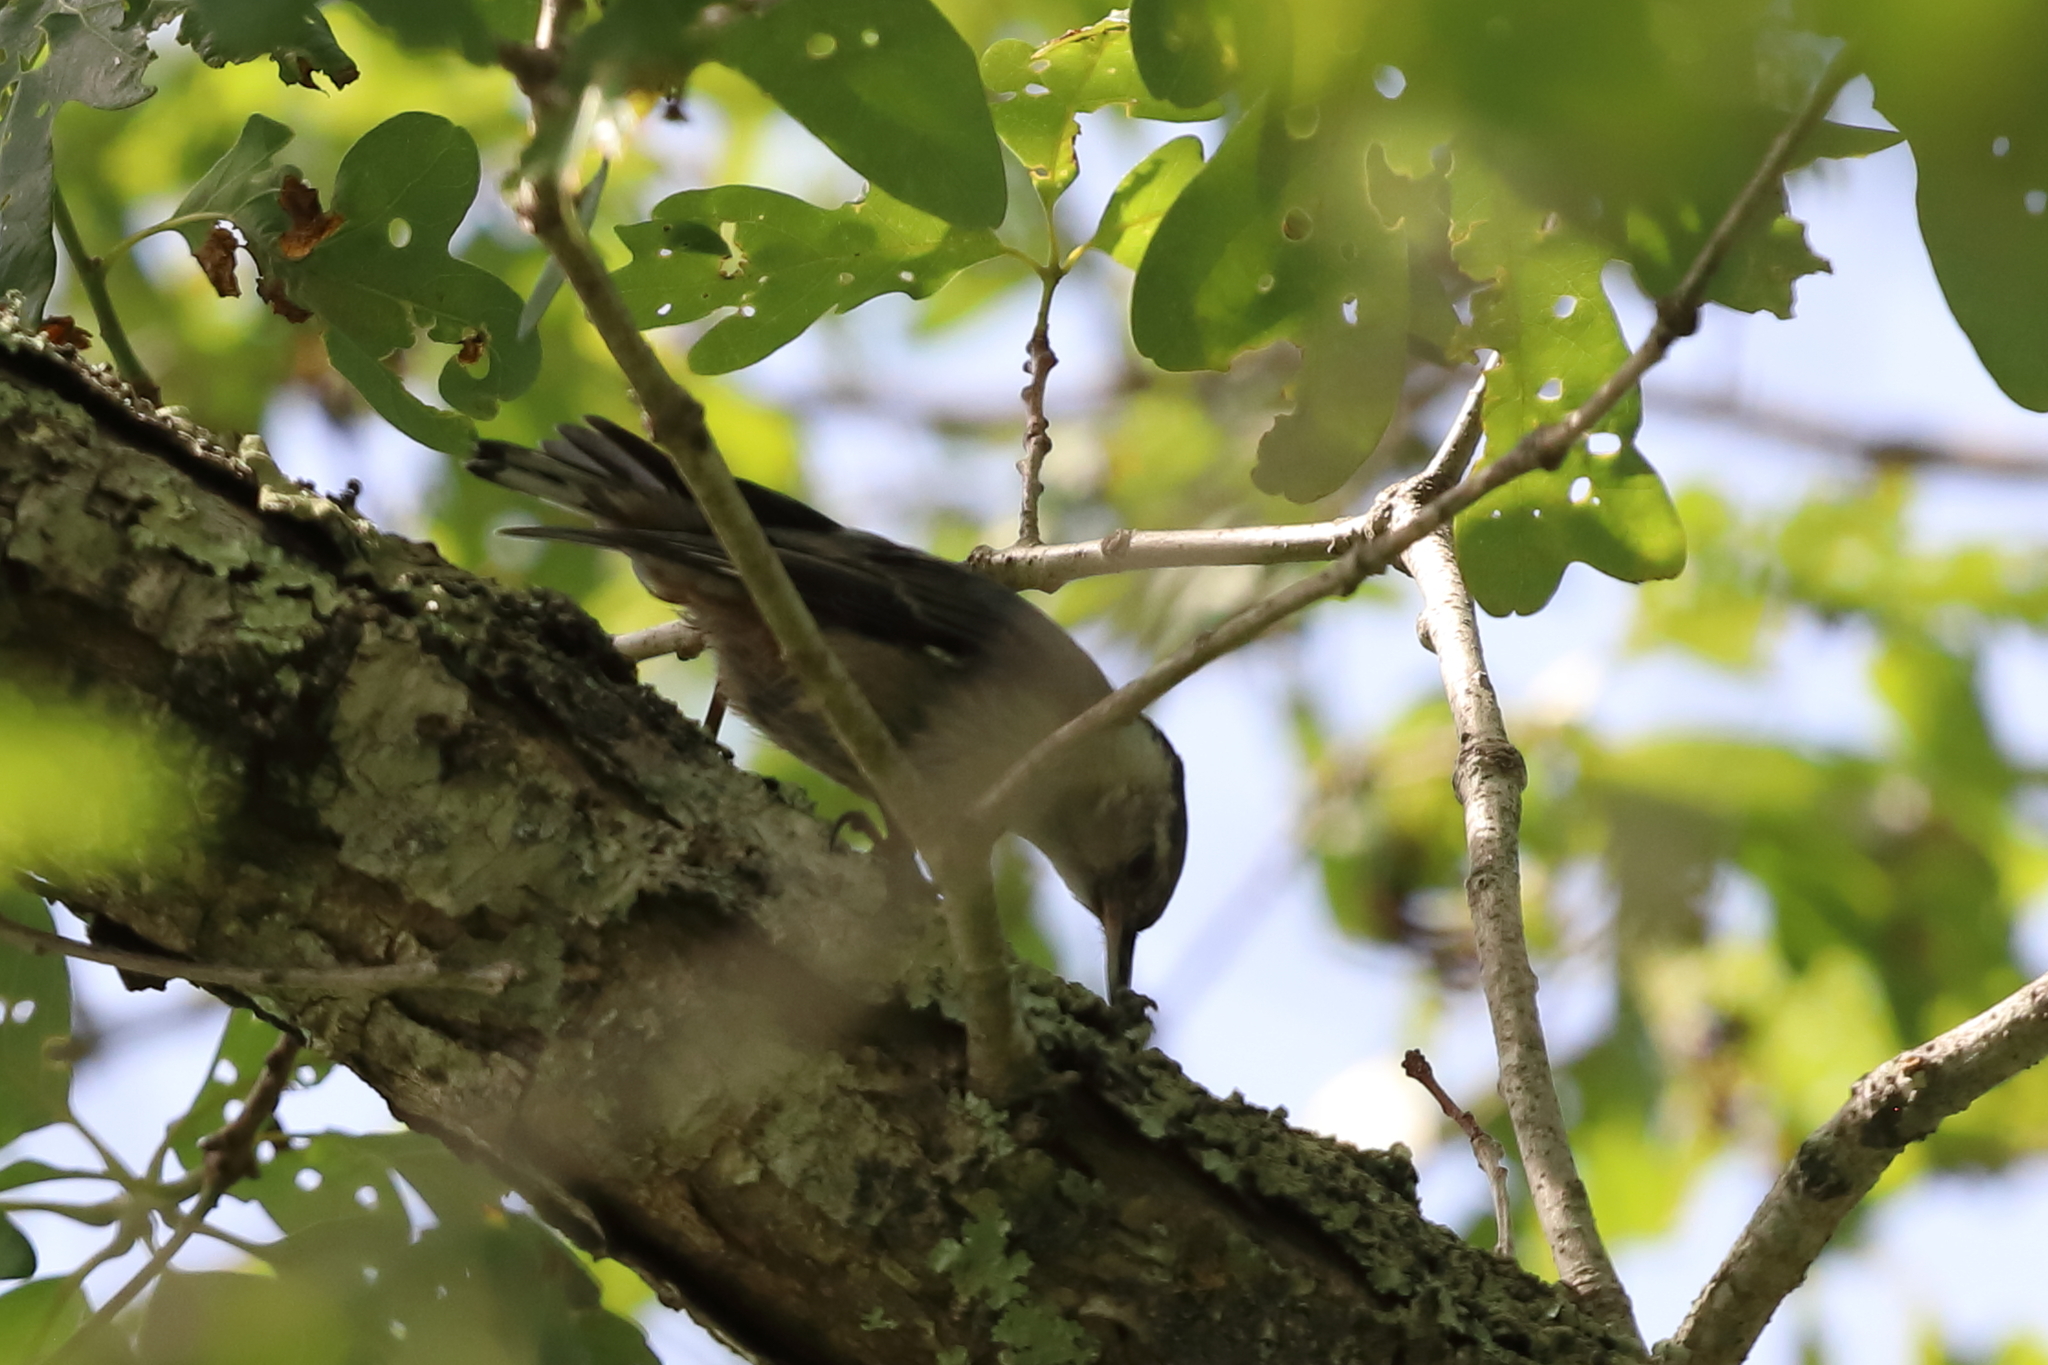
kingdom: Animalia
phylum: Chordata
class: Aves
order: Passeriformes
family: Sittidae
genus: Sitta
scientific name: Sitta carolinensis
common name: White-breasted nuthatch
